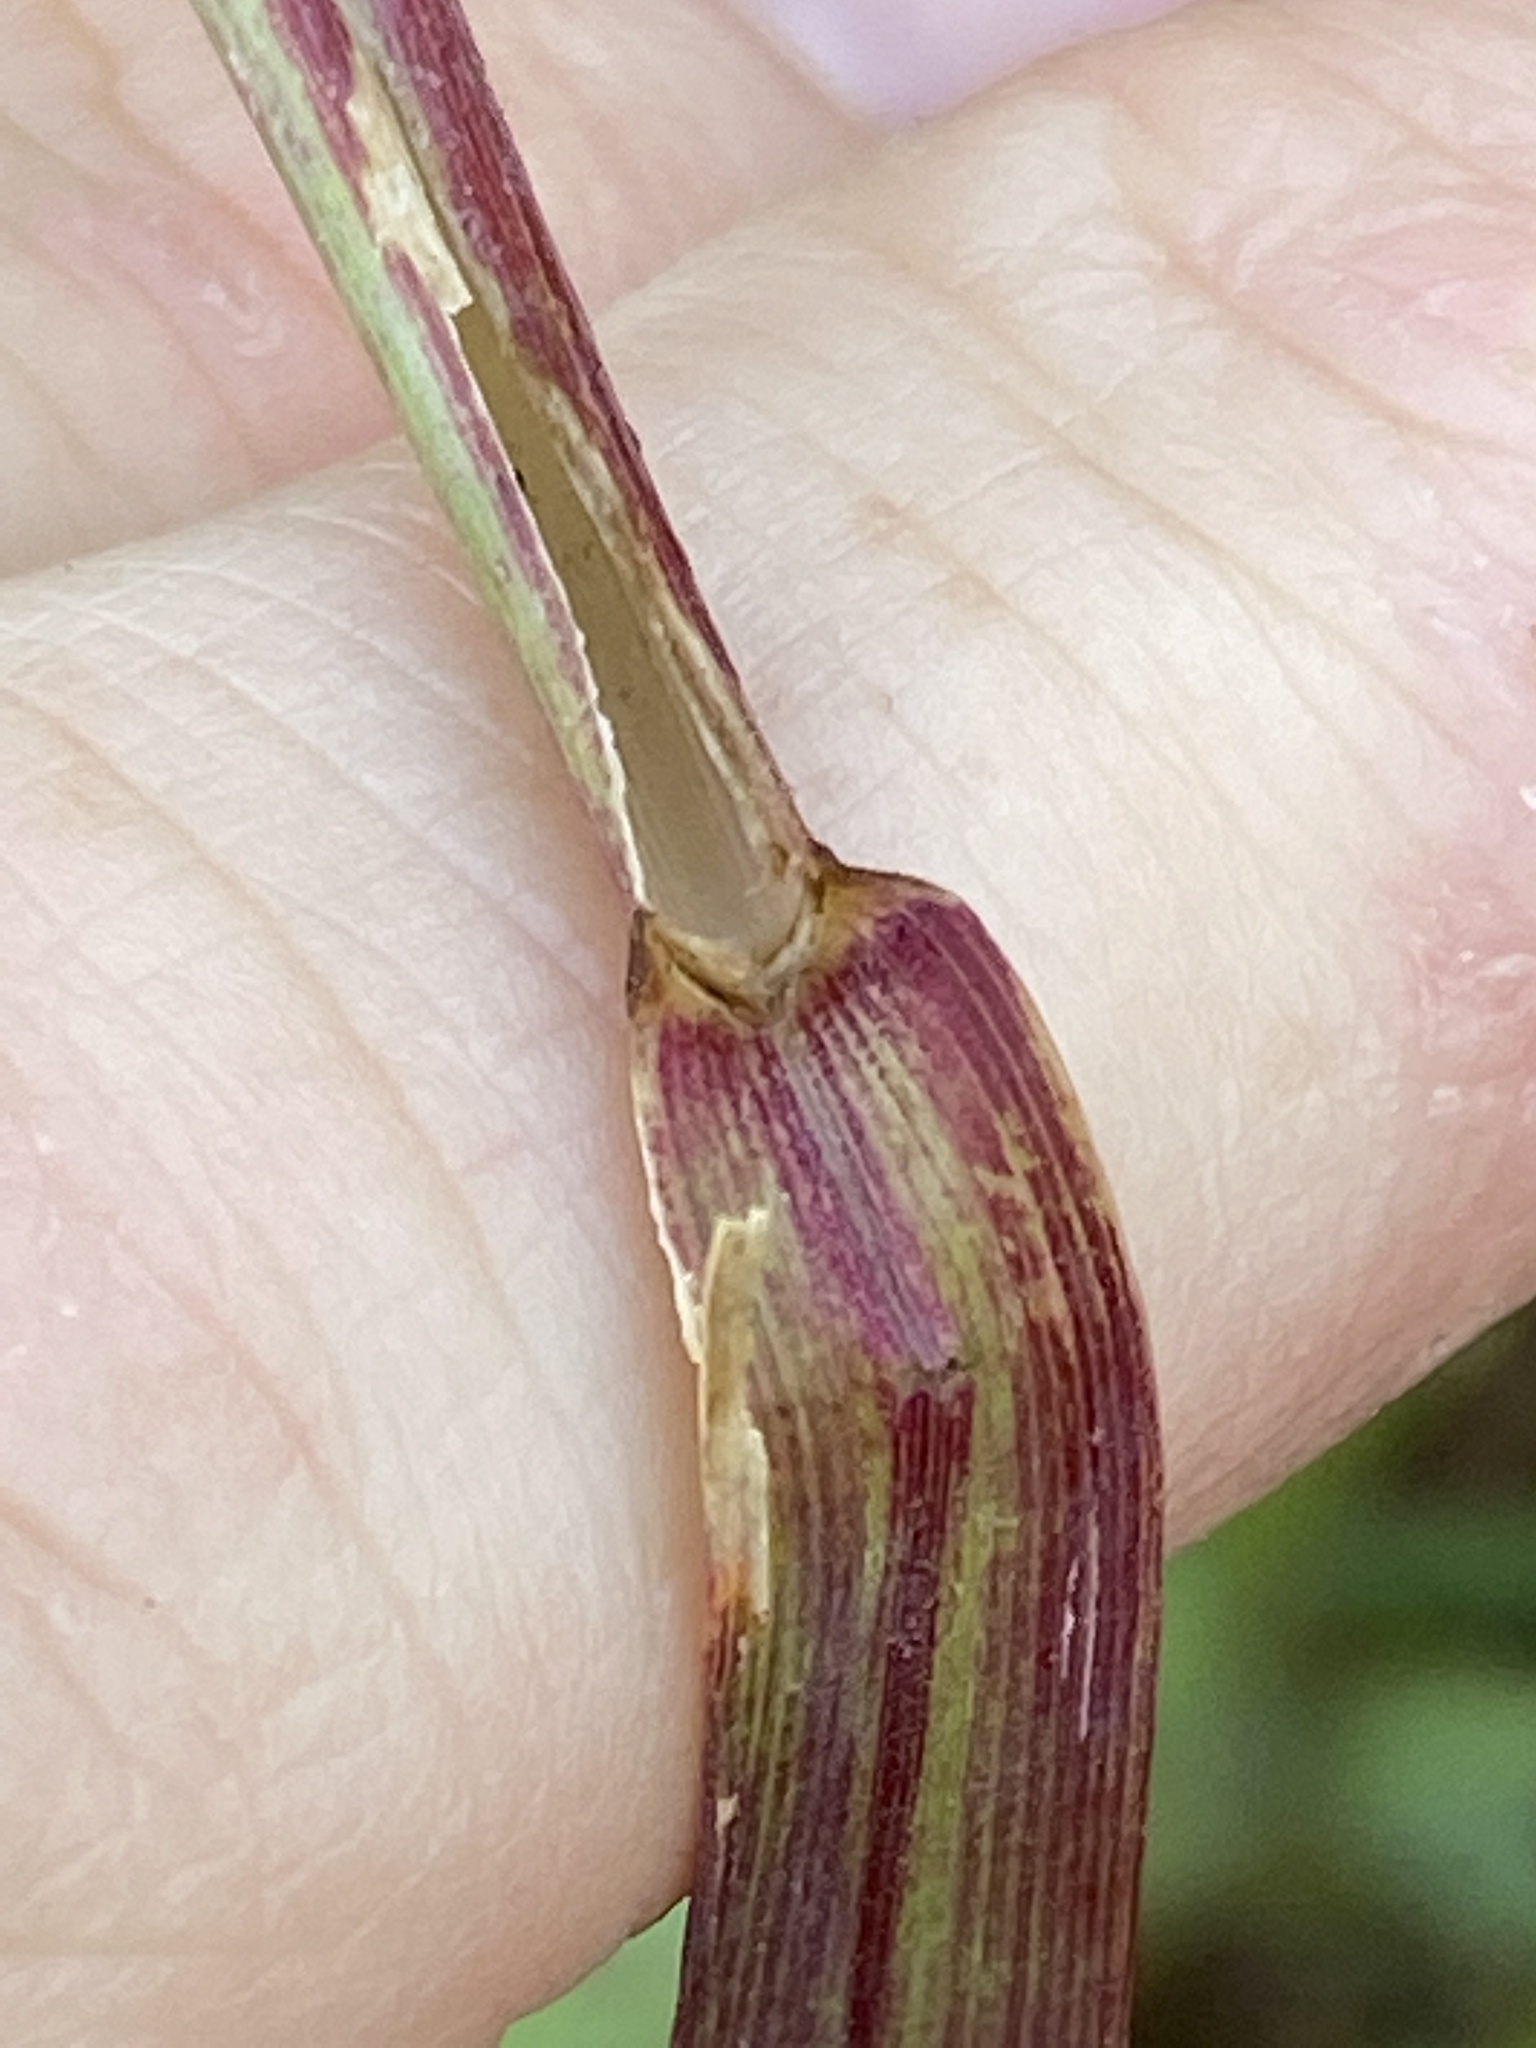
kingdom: Plantae
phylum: Tracheophyta
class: Liliopsida
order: Poales
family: Poaceae
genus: Setaria
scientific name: Setaria sphacelata
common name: African bristlegrass
